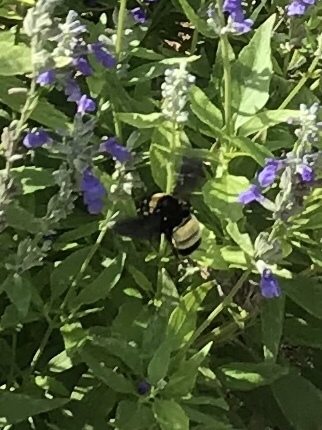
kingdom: Animalia
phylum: Arthropoda
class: Insecta
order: Hymenoptera
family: Apidae
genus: Bombus
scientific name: Bombus pensylvanicus
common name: Bumble bee
